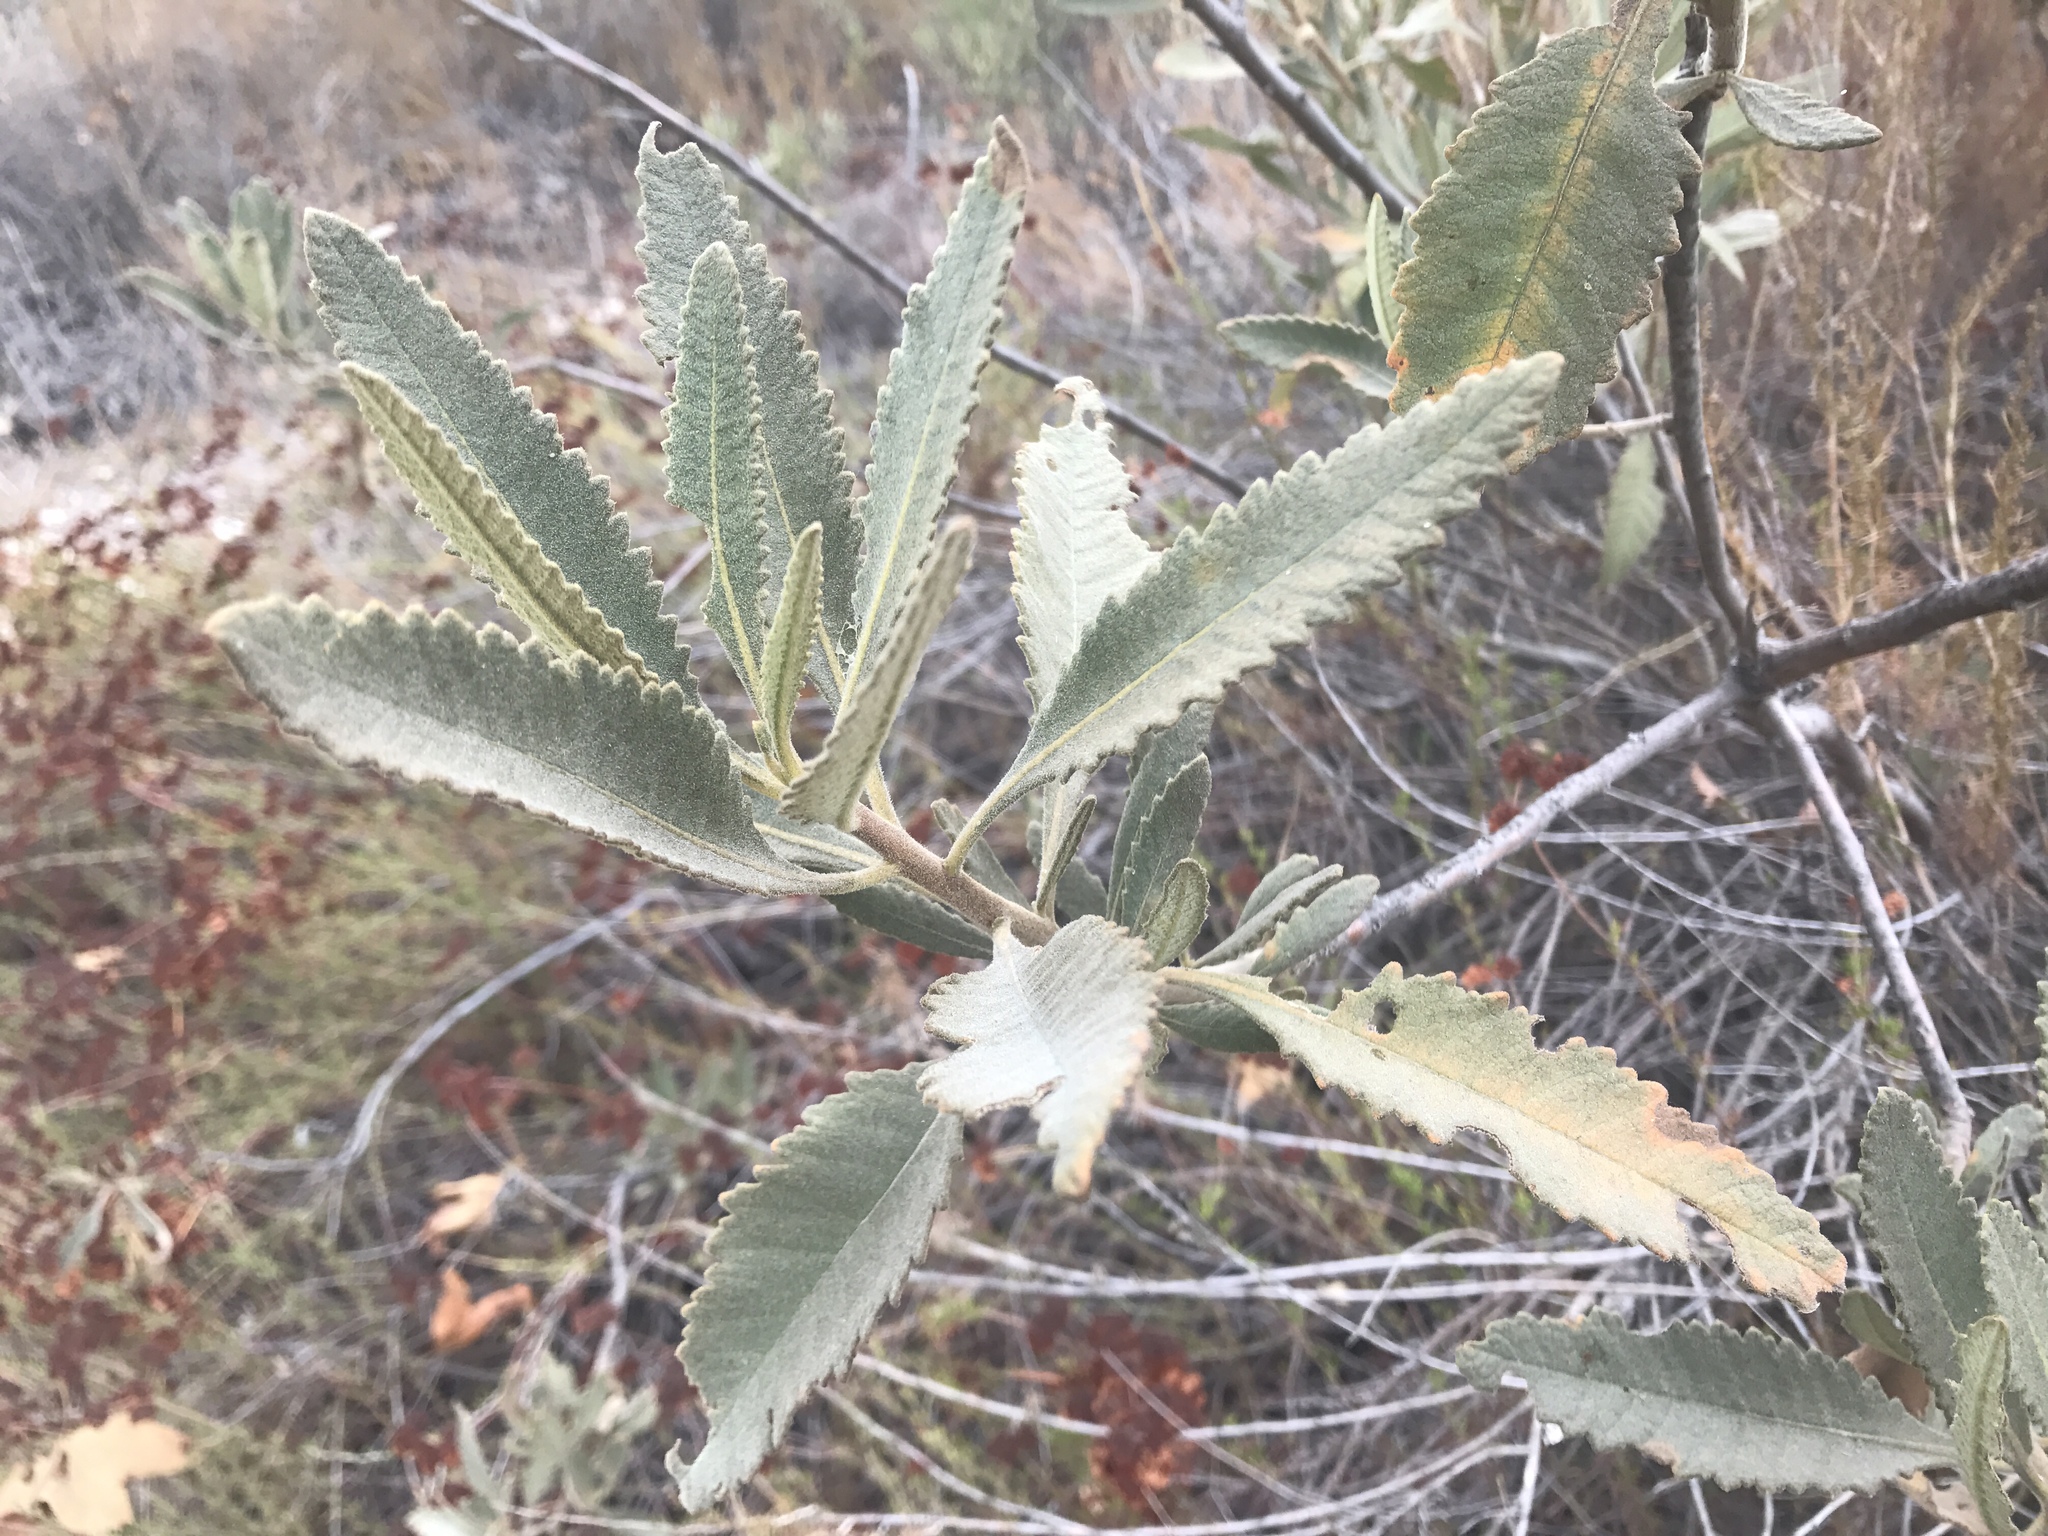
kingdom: Plantae
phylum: Tracheophyta
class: Magnoliopsida
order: Boraginales
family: Namaceae
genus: Eriodictyon
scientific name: Eriodictyon crassifolium
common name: Thick-leaf yerba-santa
